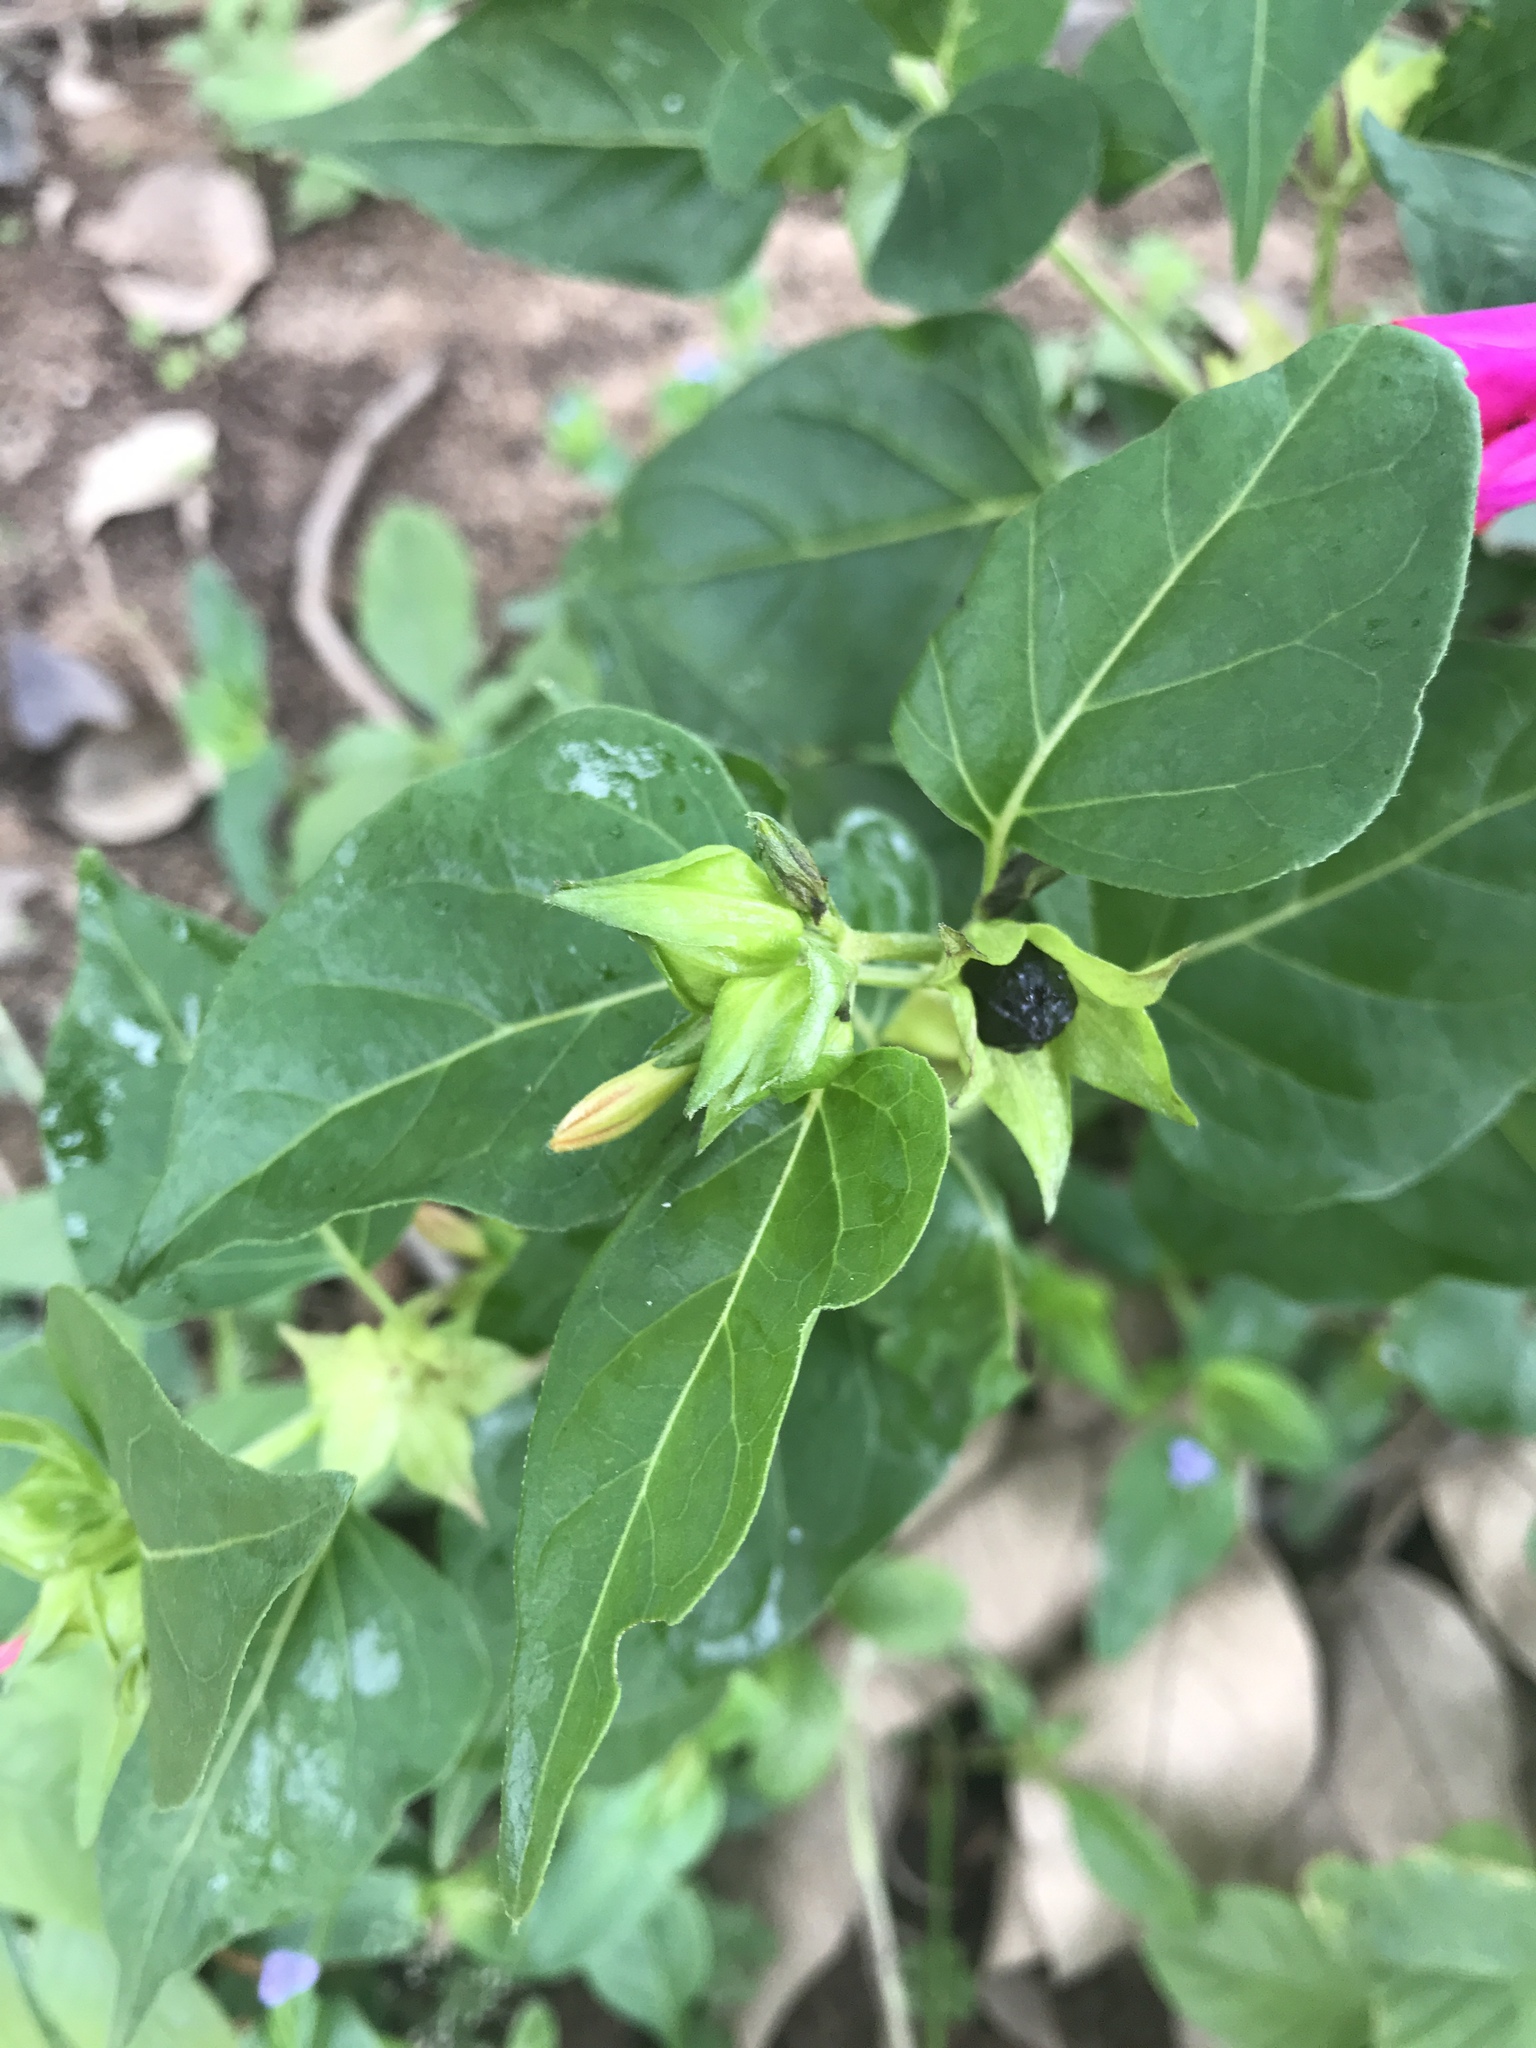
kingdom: Plantae
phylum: Tracheophyta
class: Magnoliopsida
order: Caryophyllales
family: Nyctaginaceae
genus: Mirabilis
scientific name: Mirabilis jalapa
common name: Marvel-of-peru
